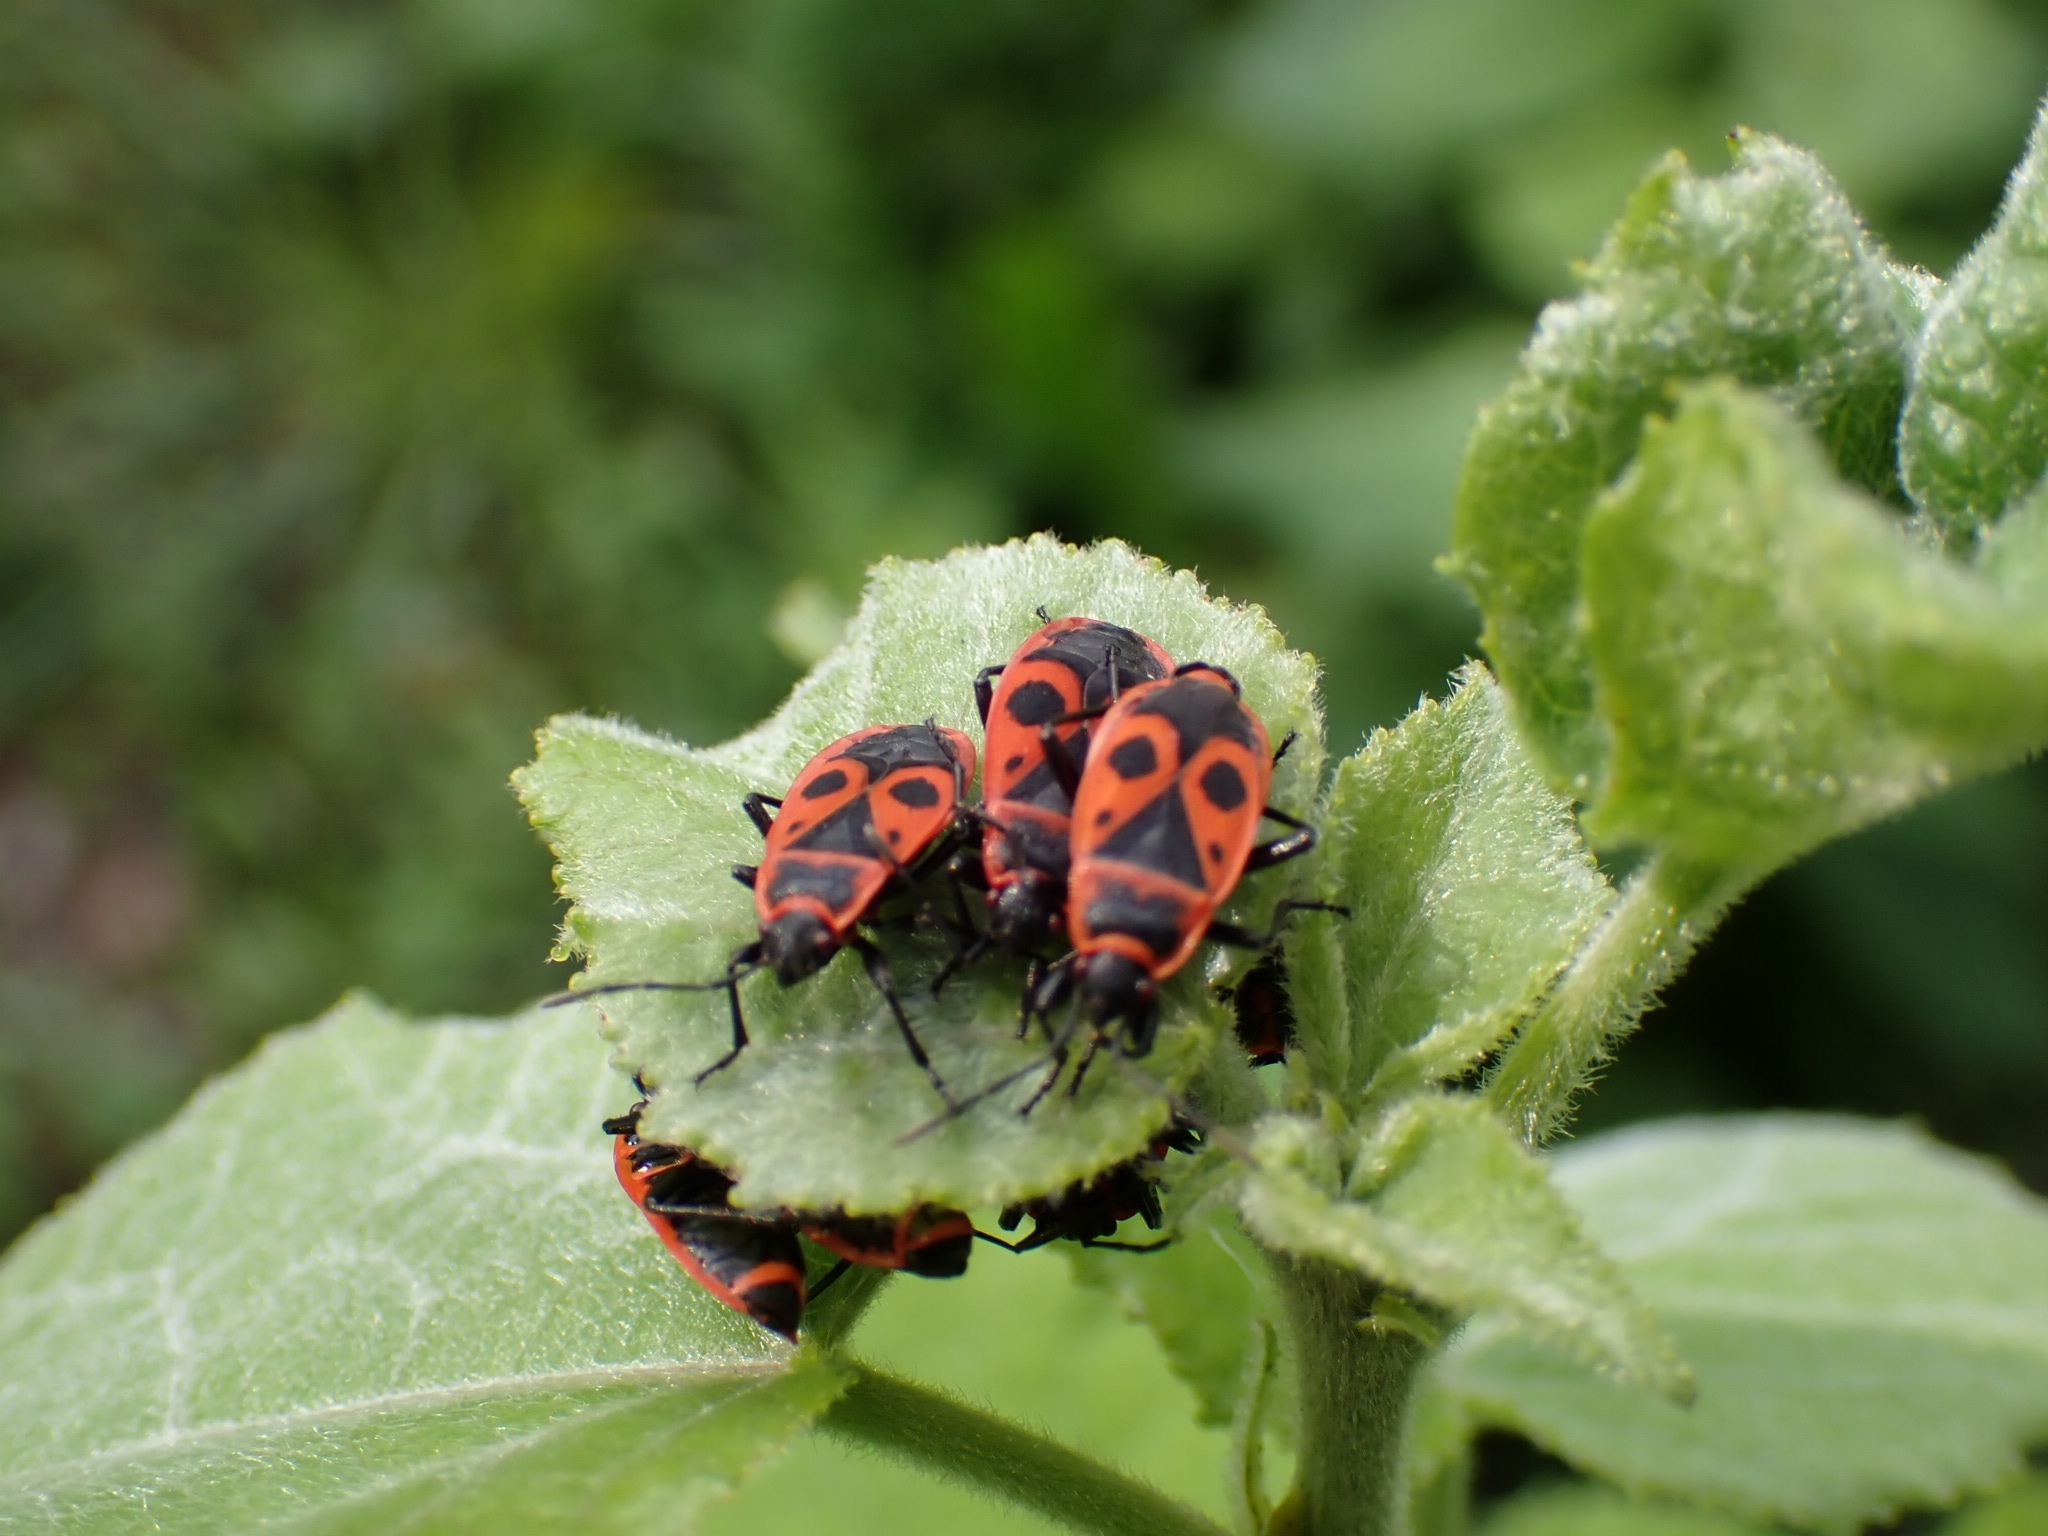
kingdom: Animalia
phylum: Arthropoda
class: Insecta
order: Hemiptera
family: Pyrrhocoridae
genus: Pyrrhocoris
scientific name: Pyrrhocoris apterus
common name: Firebug
